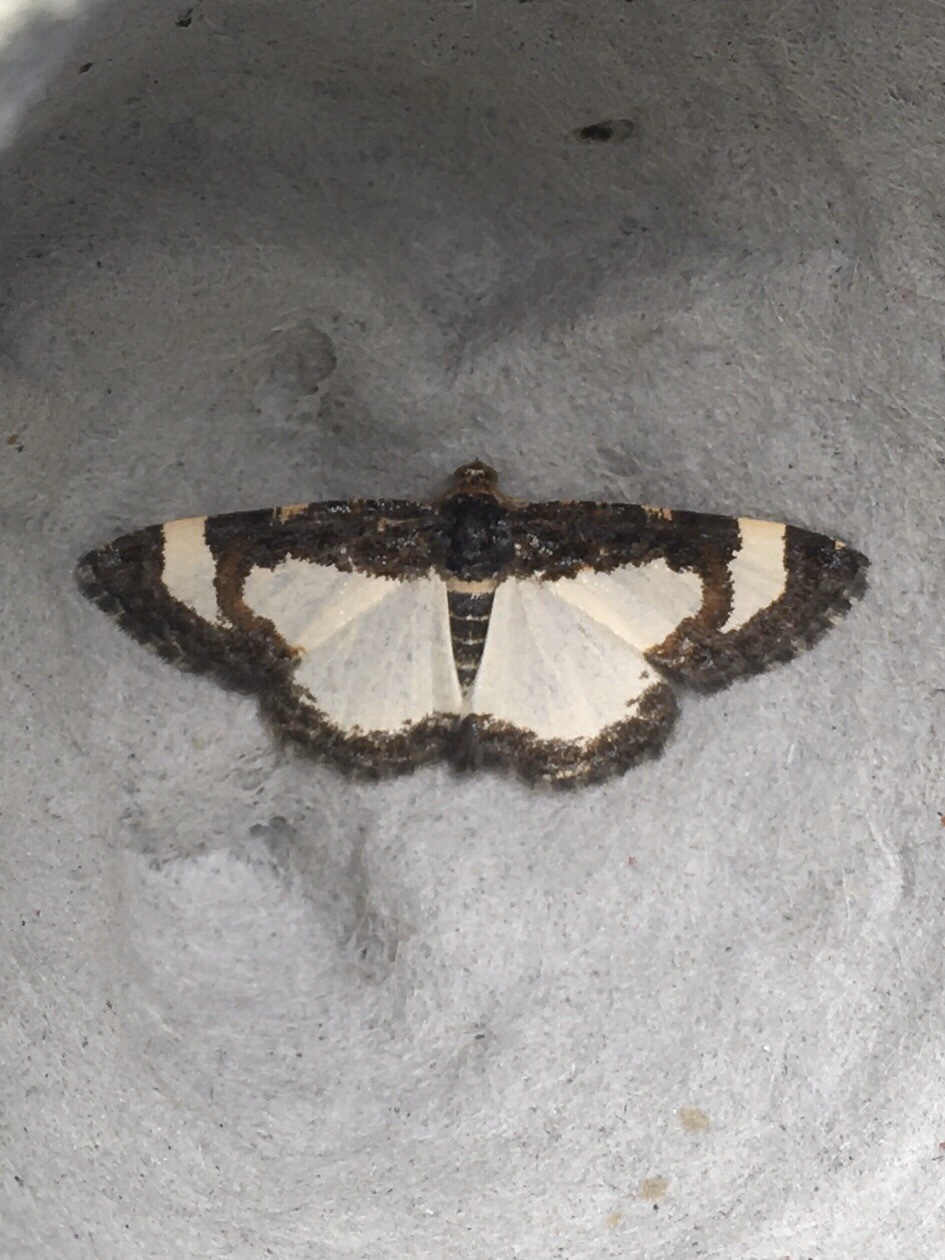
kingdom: Animalia
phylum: Arthropoda
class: Insecta
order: Lepidoptera
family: Geometridae
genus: Heliomata
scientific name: Heliomata cycladata
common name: Common spring moth
